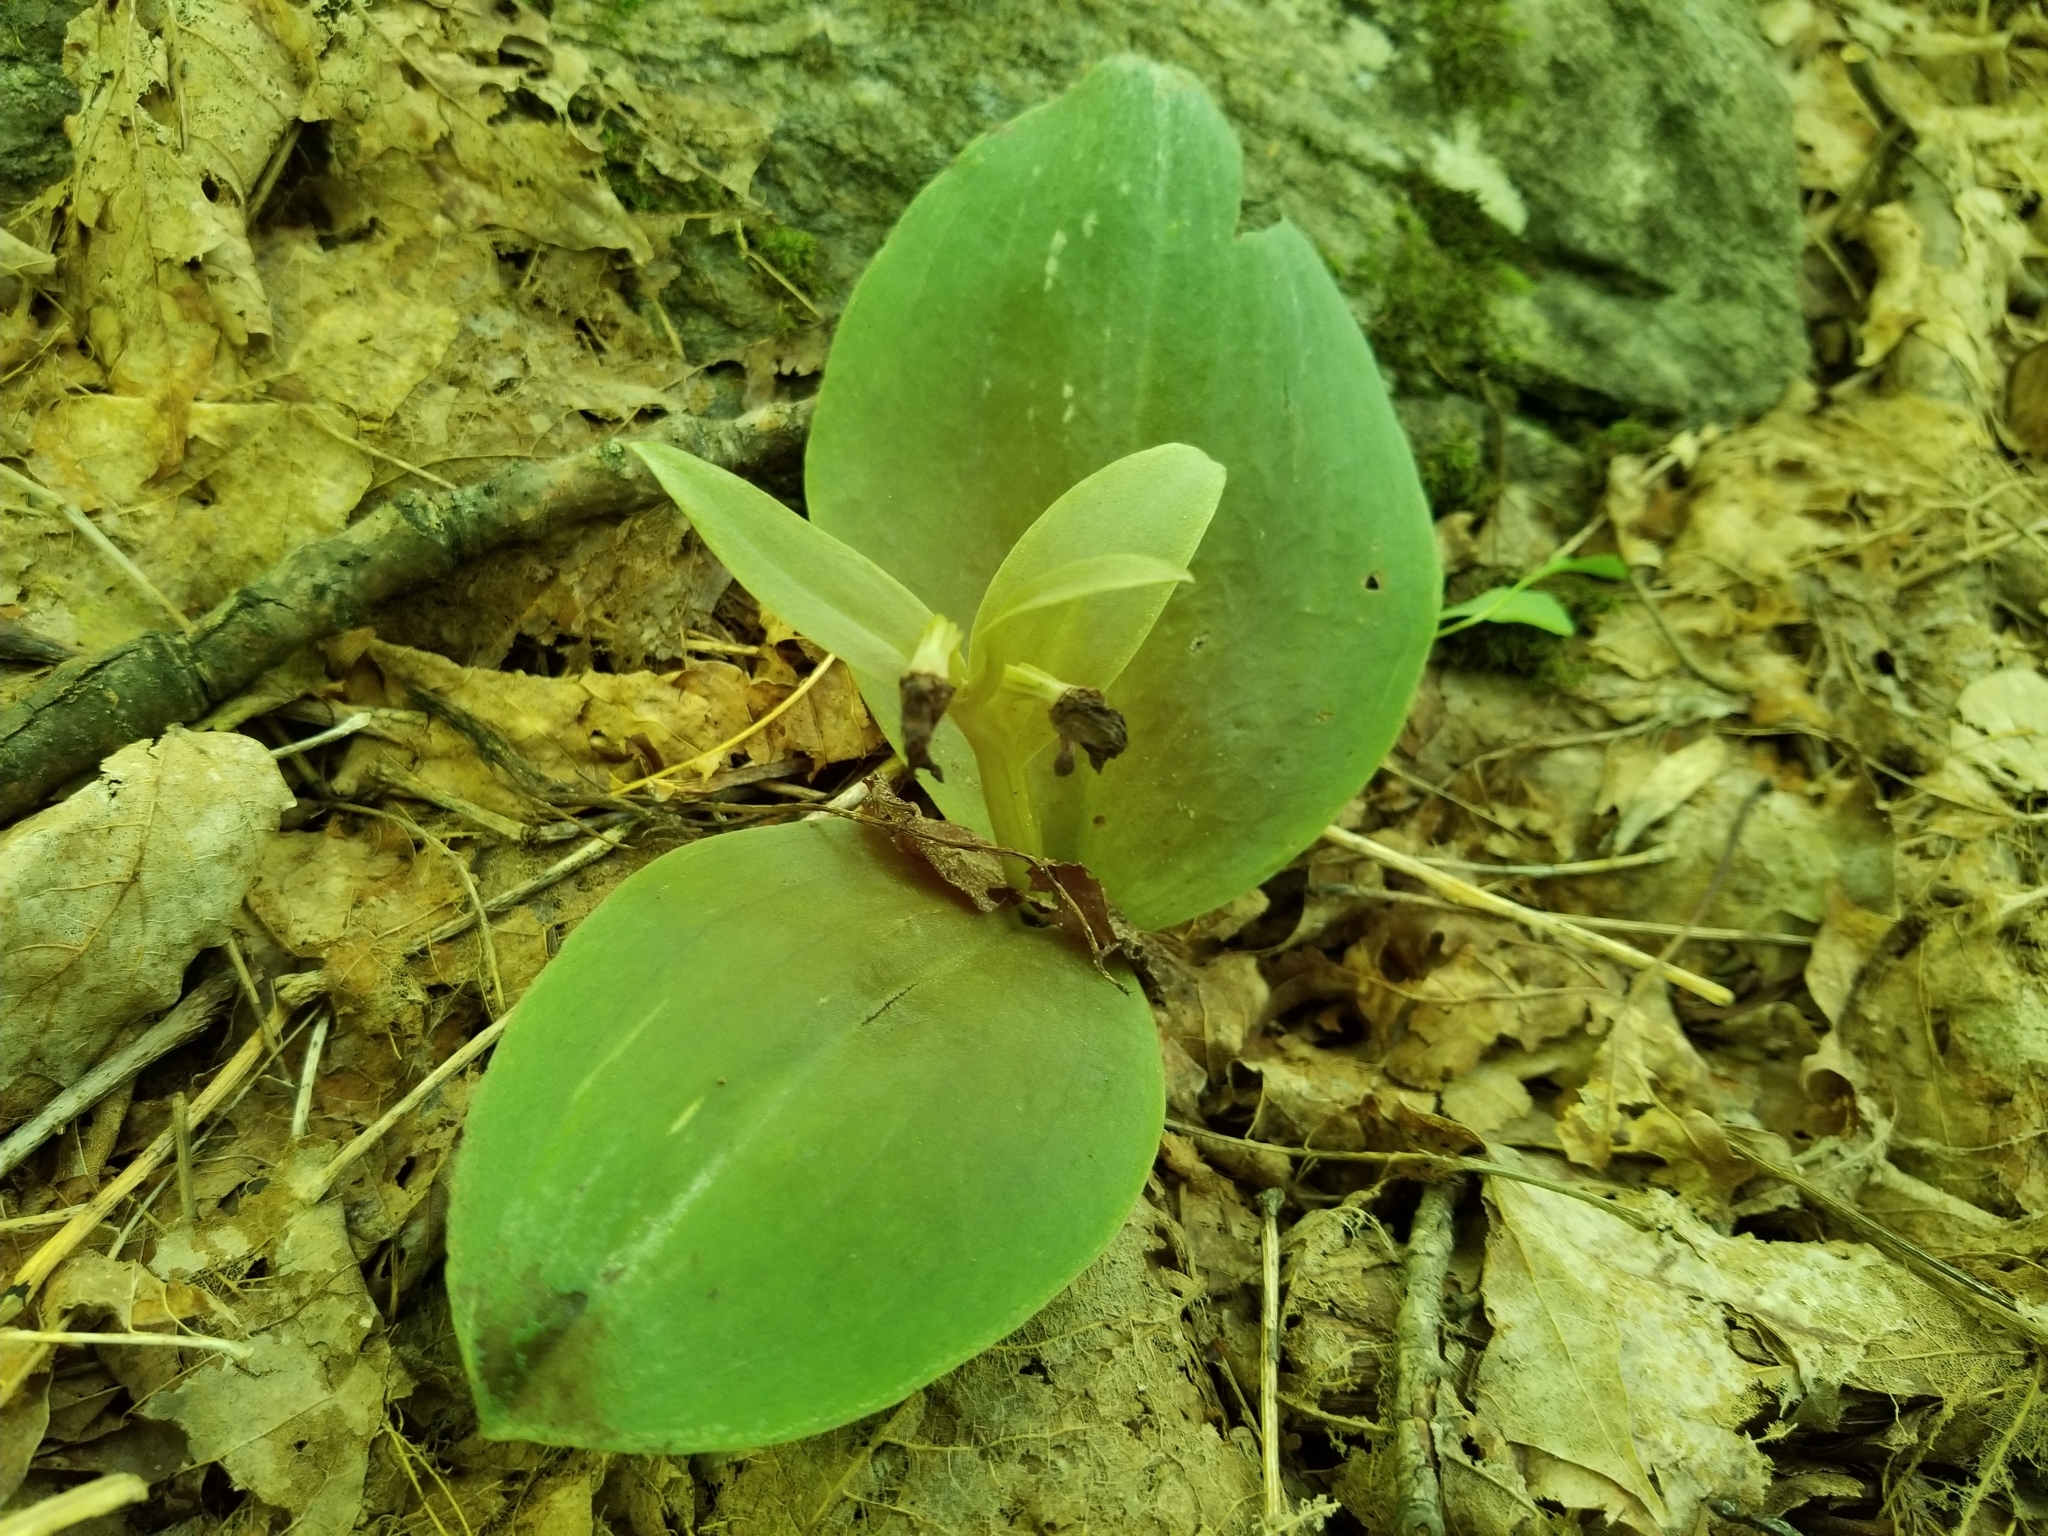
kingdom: Plantae
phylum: Tracheophyta
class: Liliopsida
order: Asparagales
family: Orchidaceae
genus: Galearis
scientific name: Galearis spectabilis
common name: Purple-hooded orchis
